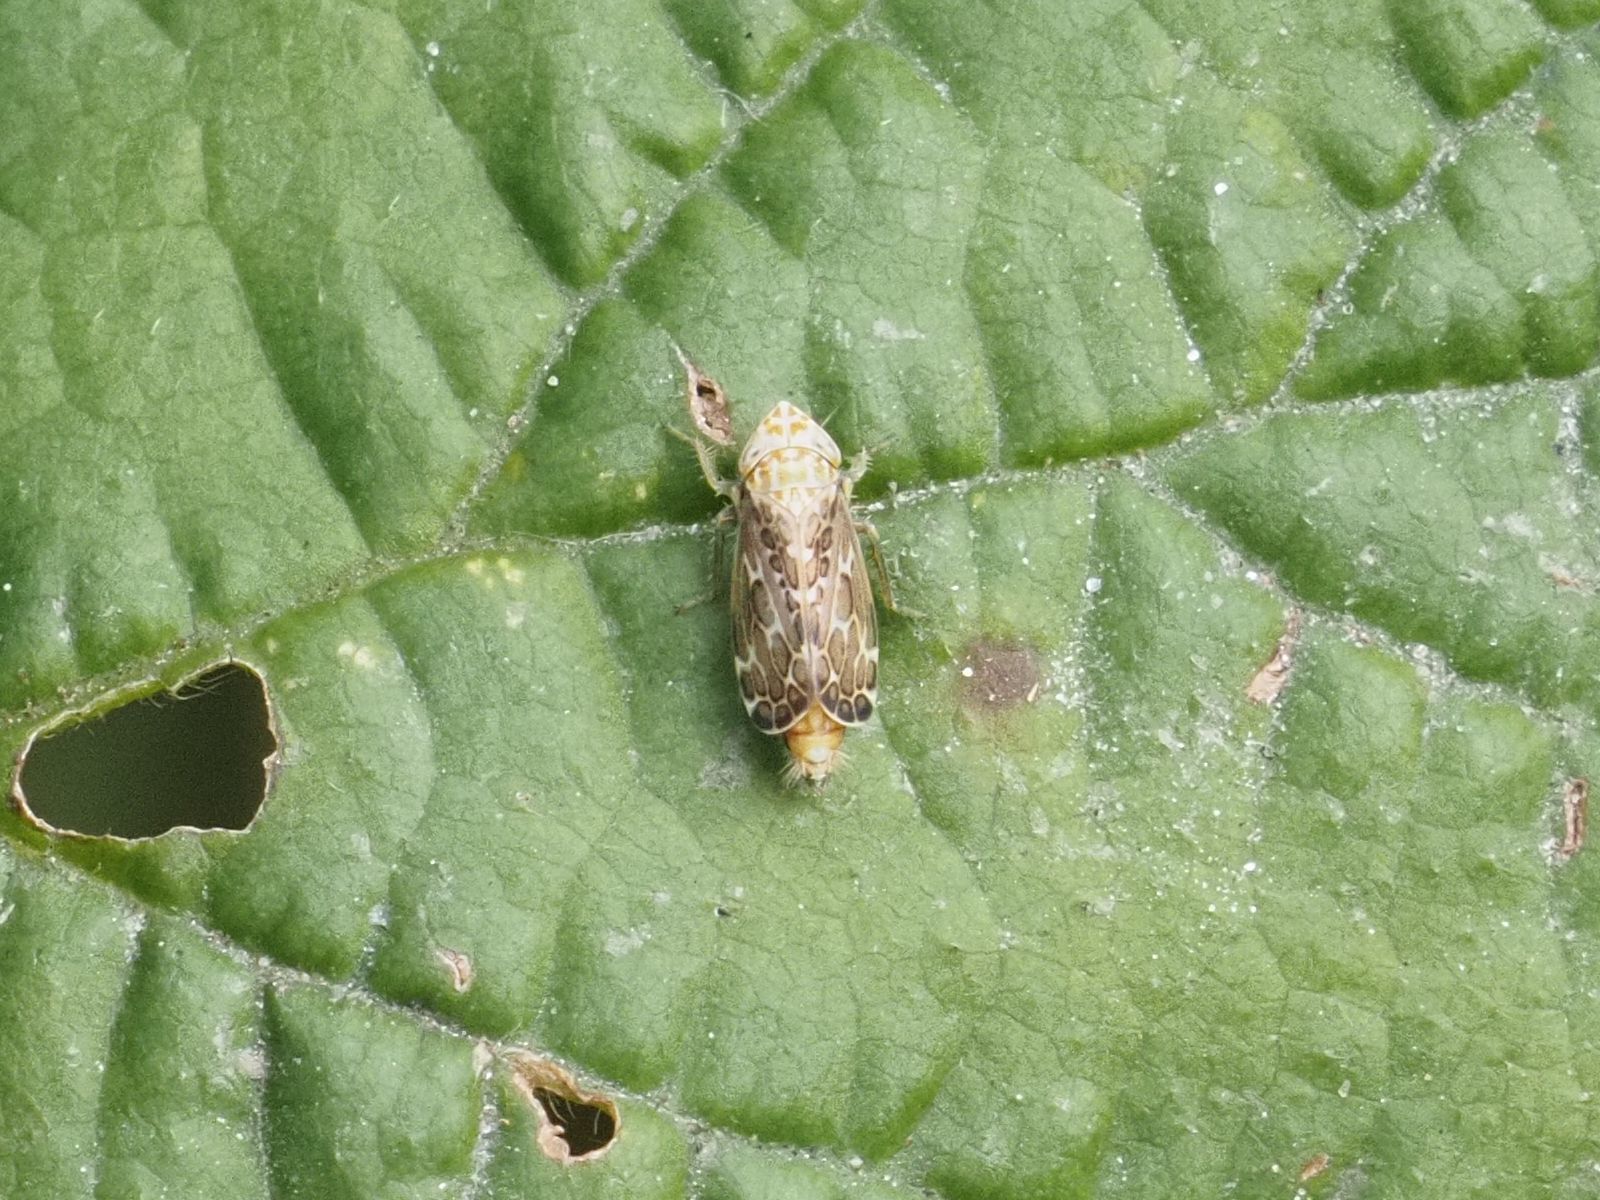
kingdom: Animalia
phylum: Arthropoda
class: Insecta
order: Hemiptera
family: Cicadellidae
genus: Errastunus
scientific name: Errastunus ocellaris
